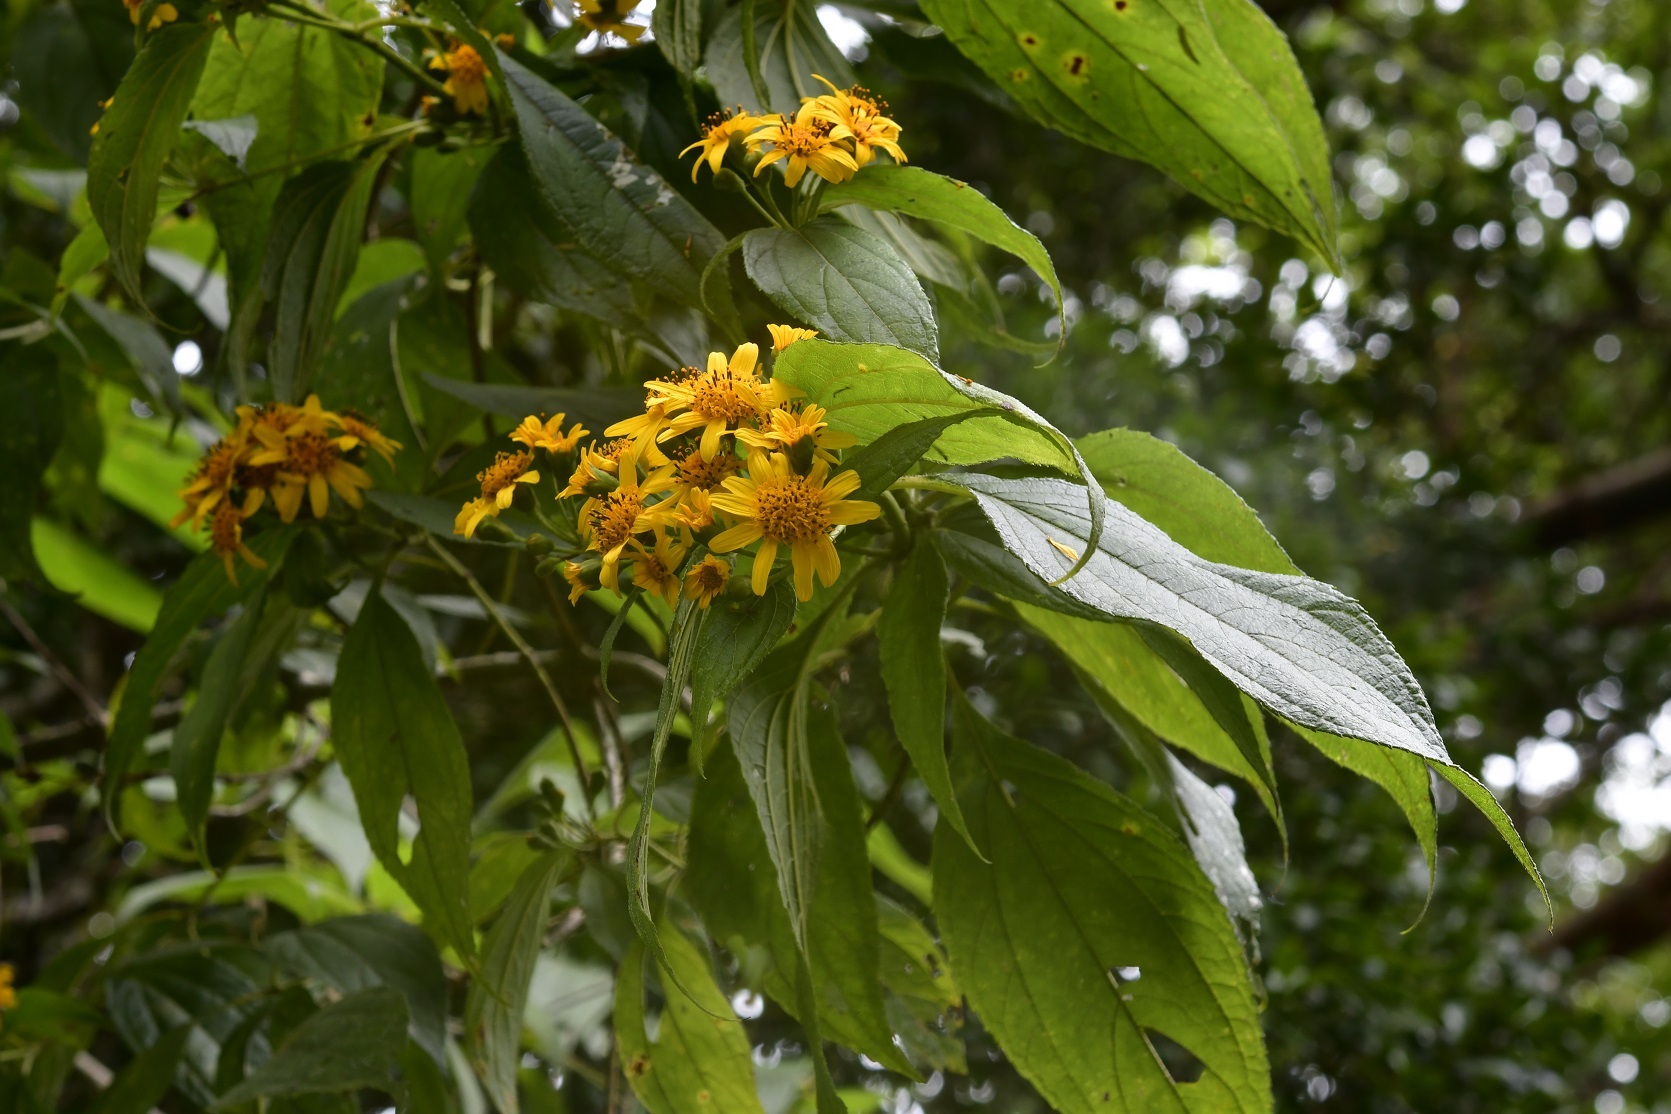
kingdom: Plantae
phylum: Tracheophyta
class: Magnoliopsida
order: Asterales
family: Asteraceae
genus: Perymenium
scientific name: Perymenium grande
